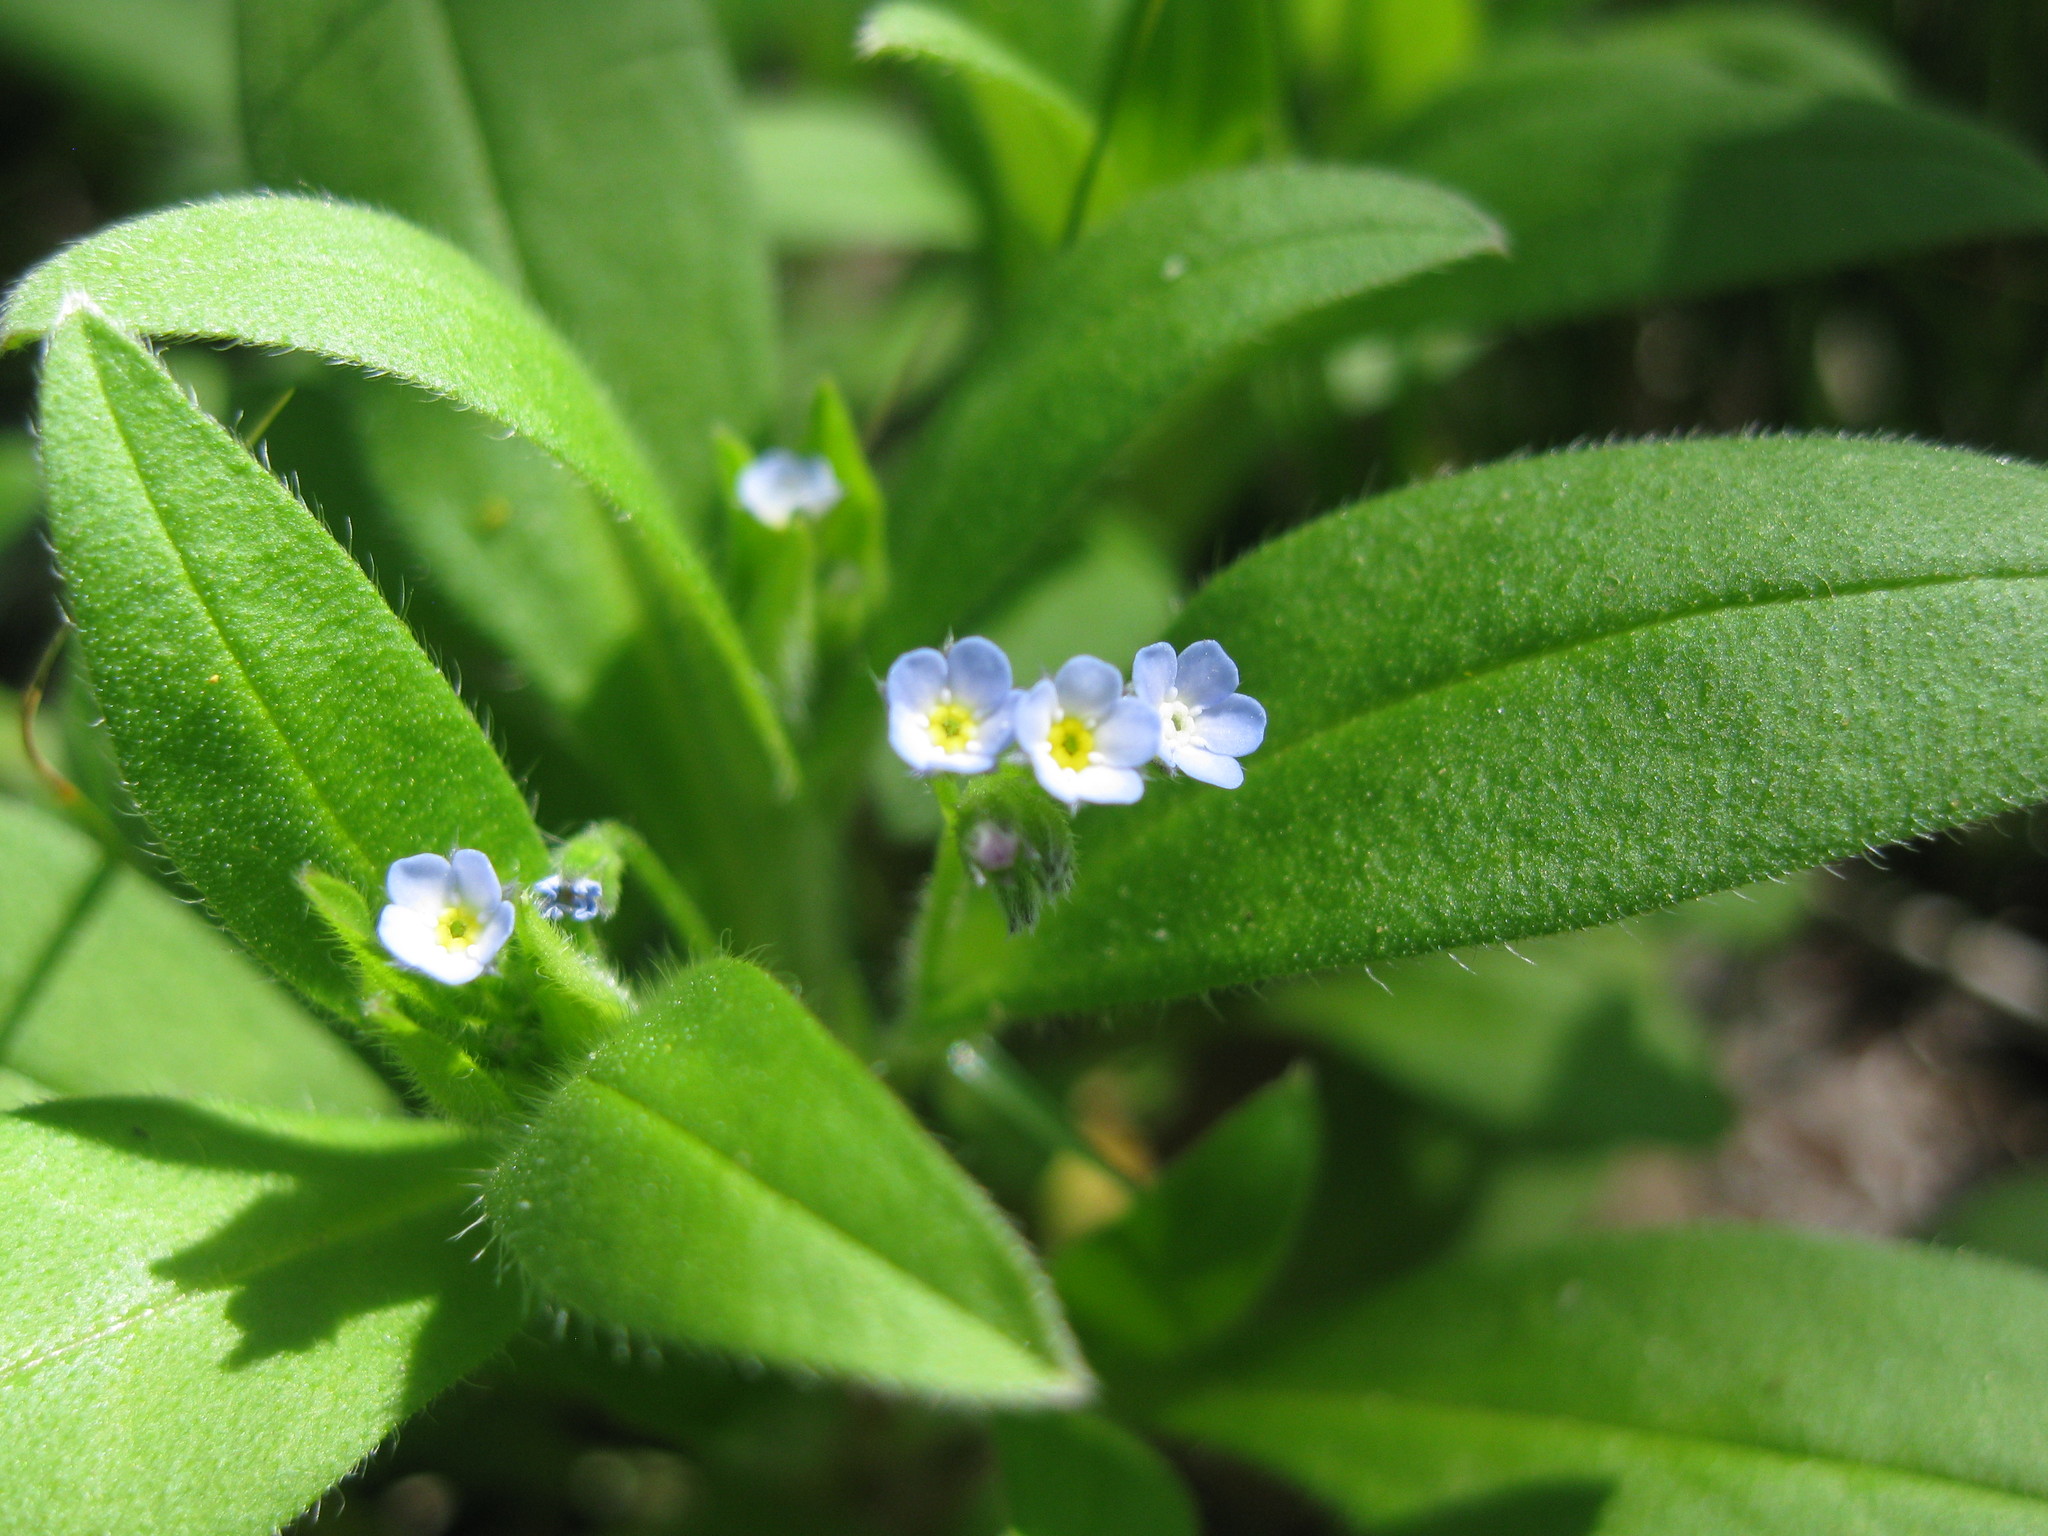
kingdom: Plantae
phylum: Tracheophyta
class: Magnoliopsida
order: Boraginales
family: Boraginaceae
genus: Myosotis
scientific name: Myosotis sparsiflora
